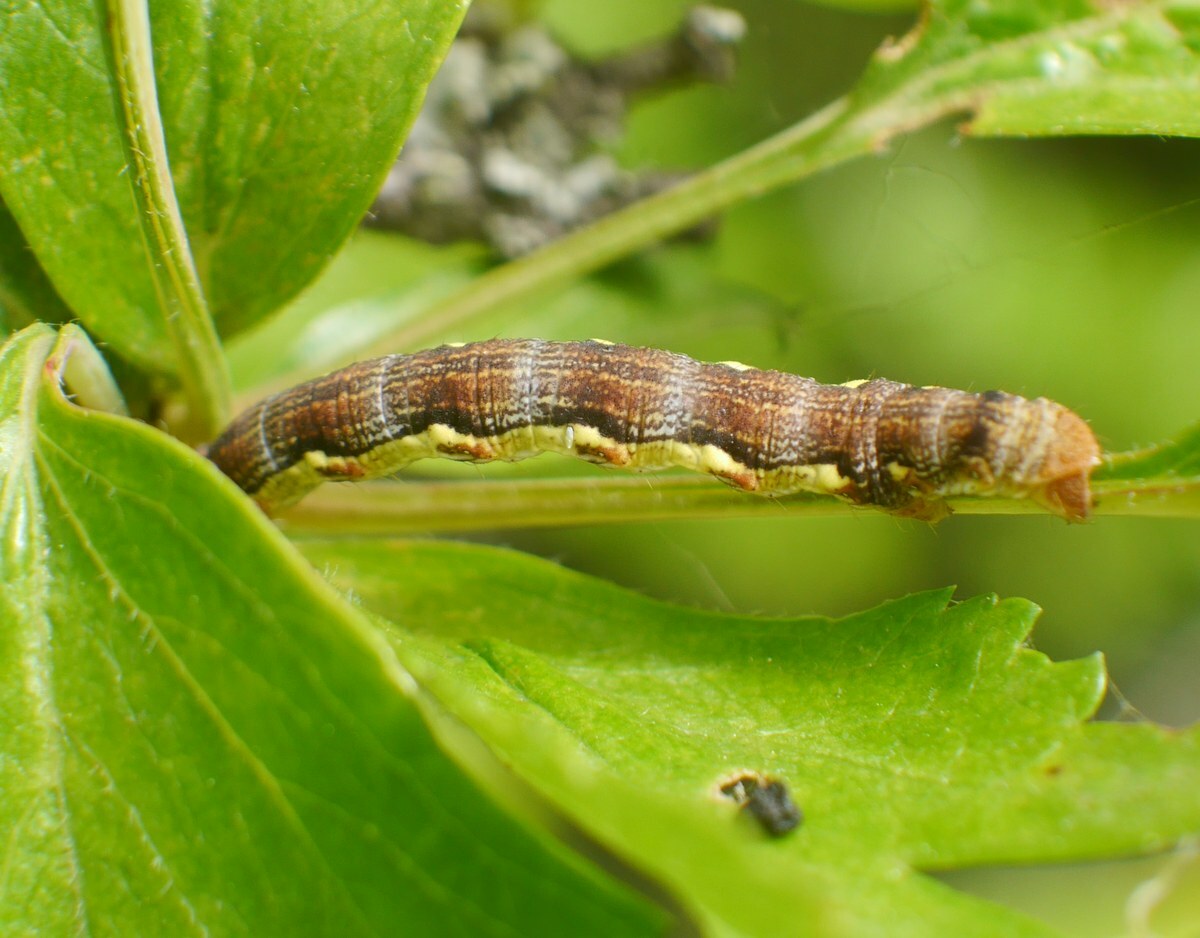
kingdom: Animalia
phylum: Arthropoda
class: Insecta
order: Lepidoptera
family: Geometridae
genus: Erannis
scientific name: Erannis defoliaria
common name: Mottled umber
